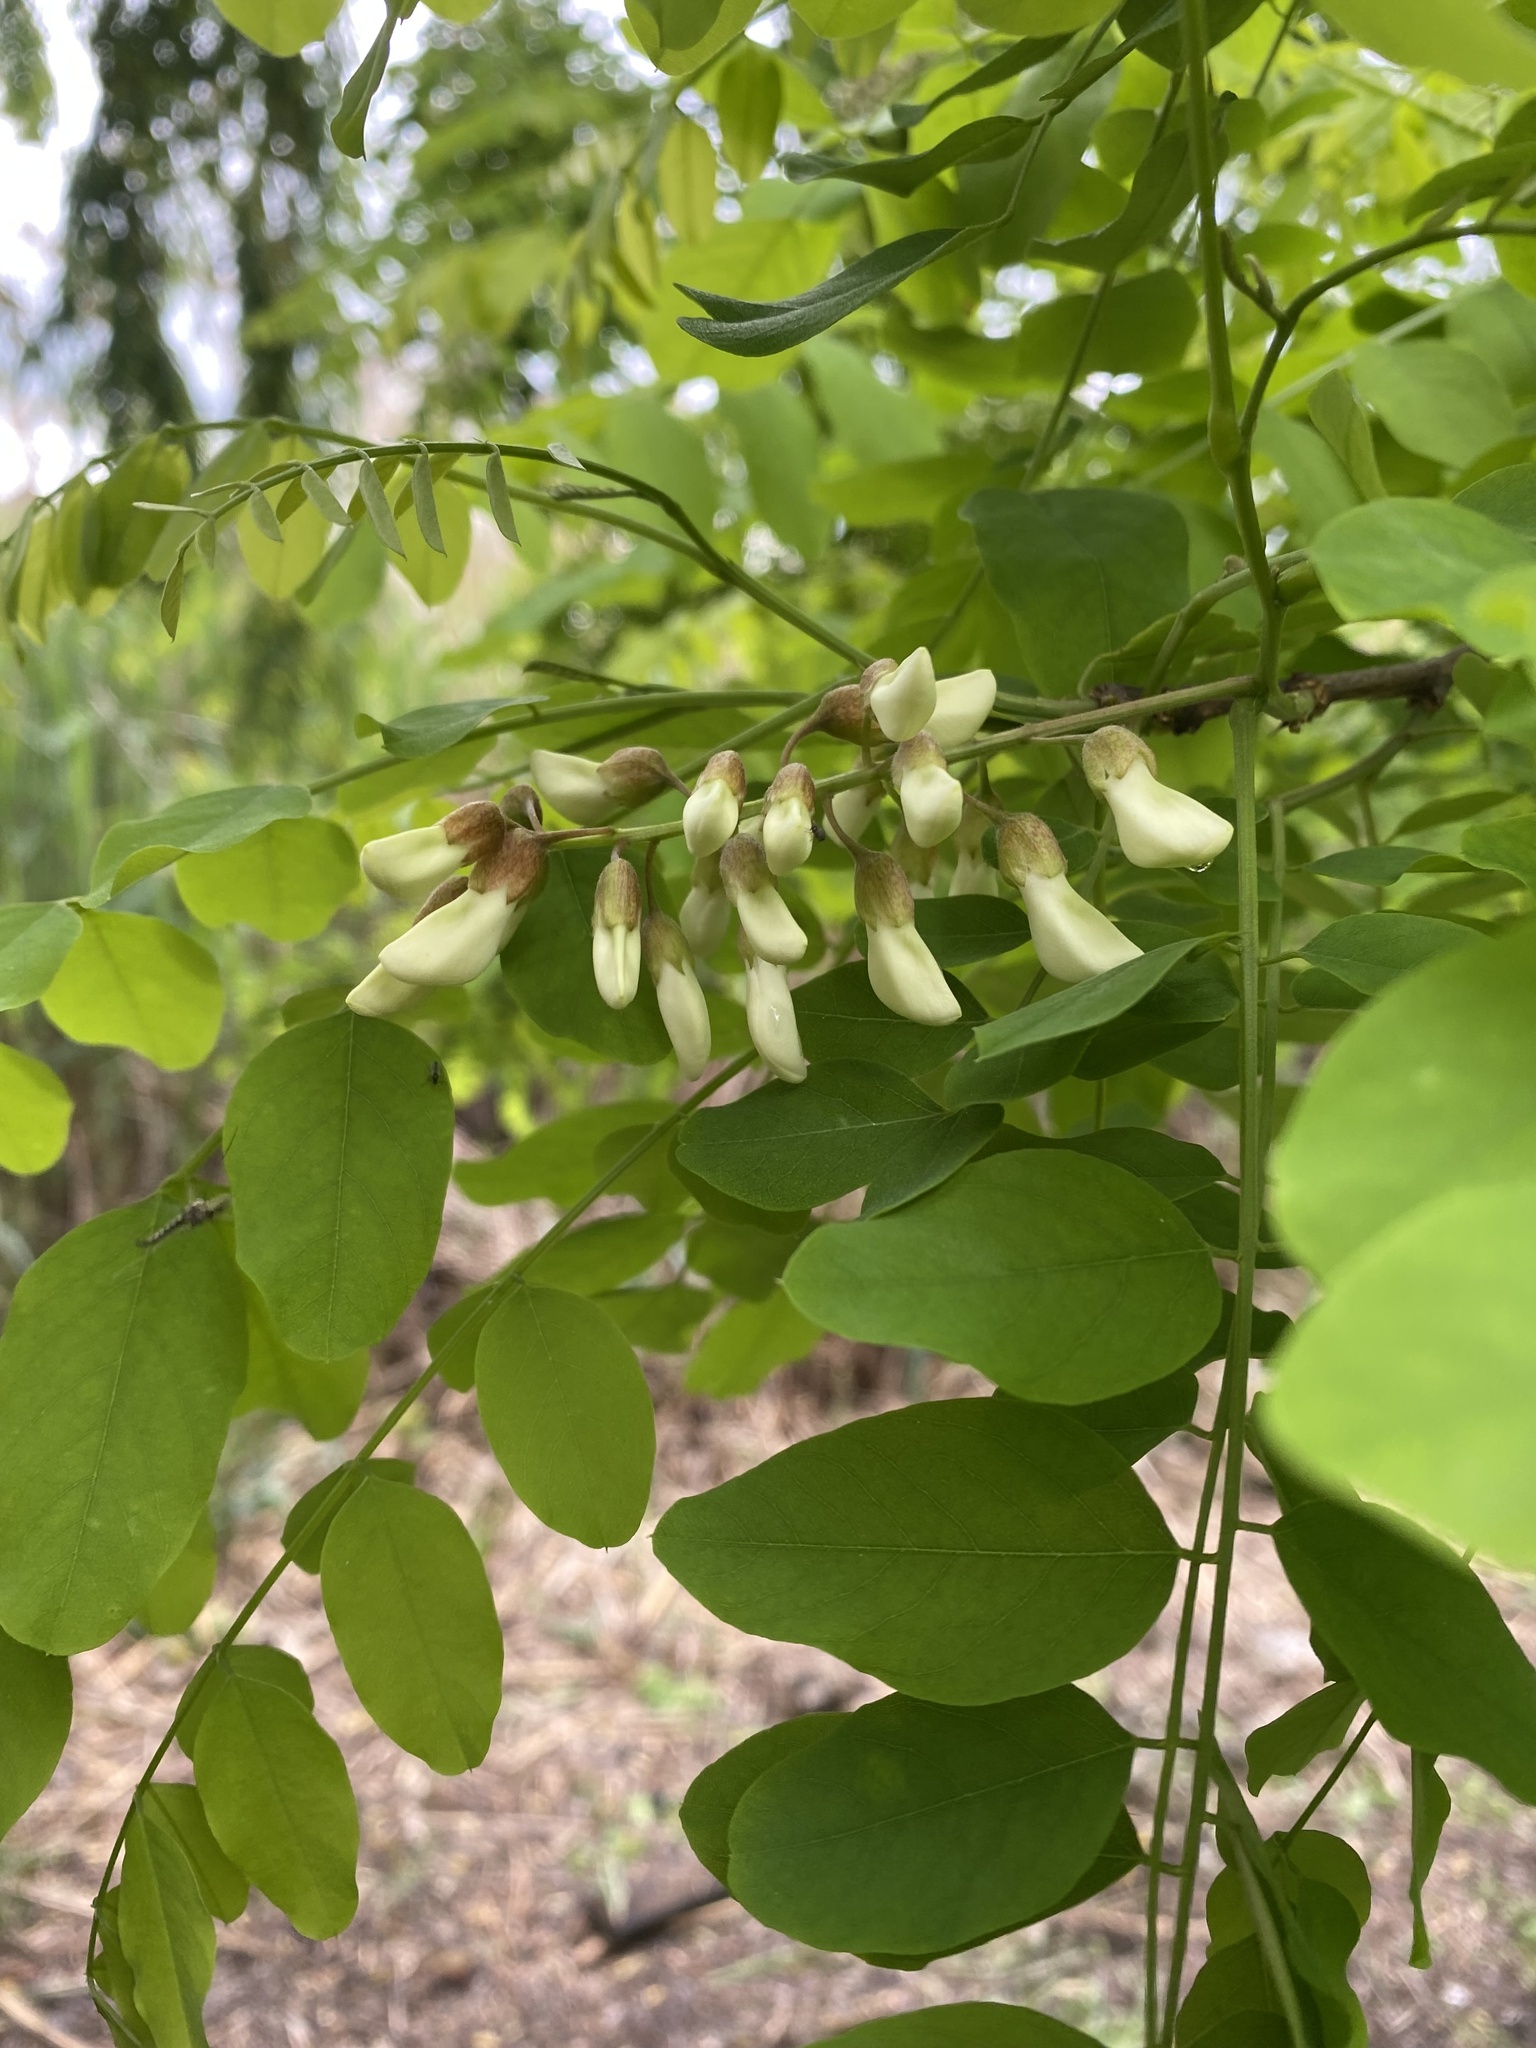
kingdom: Plantae
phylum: Tracheophyta
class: Magnoliopsida
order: Fabales
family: Fabaceae
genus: Robinia
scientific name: Robinia pseudoacacia
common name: Black locust
